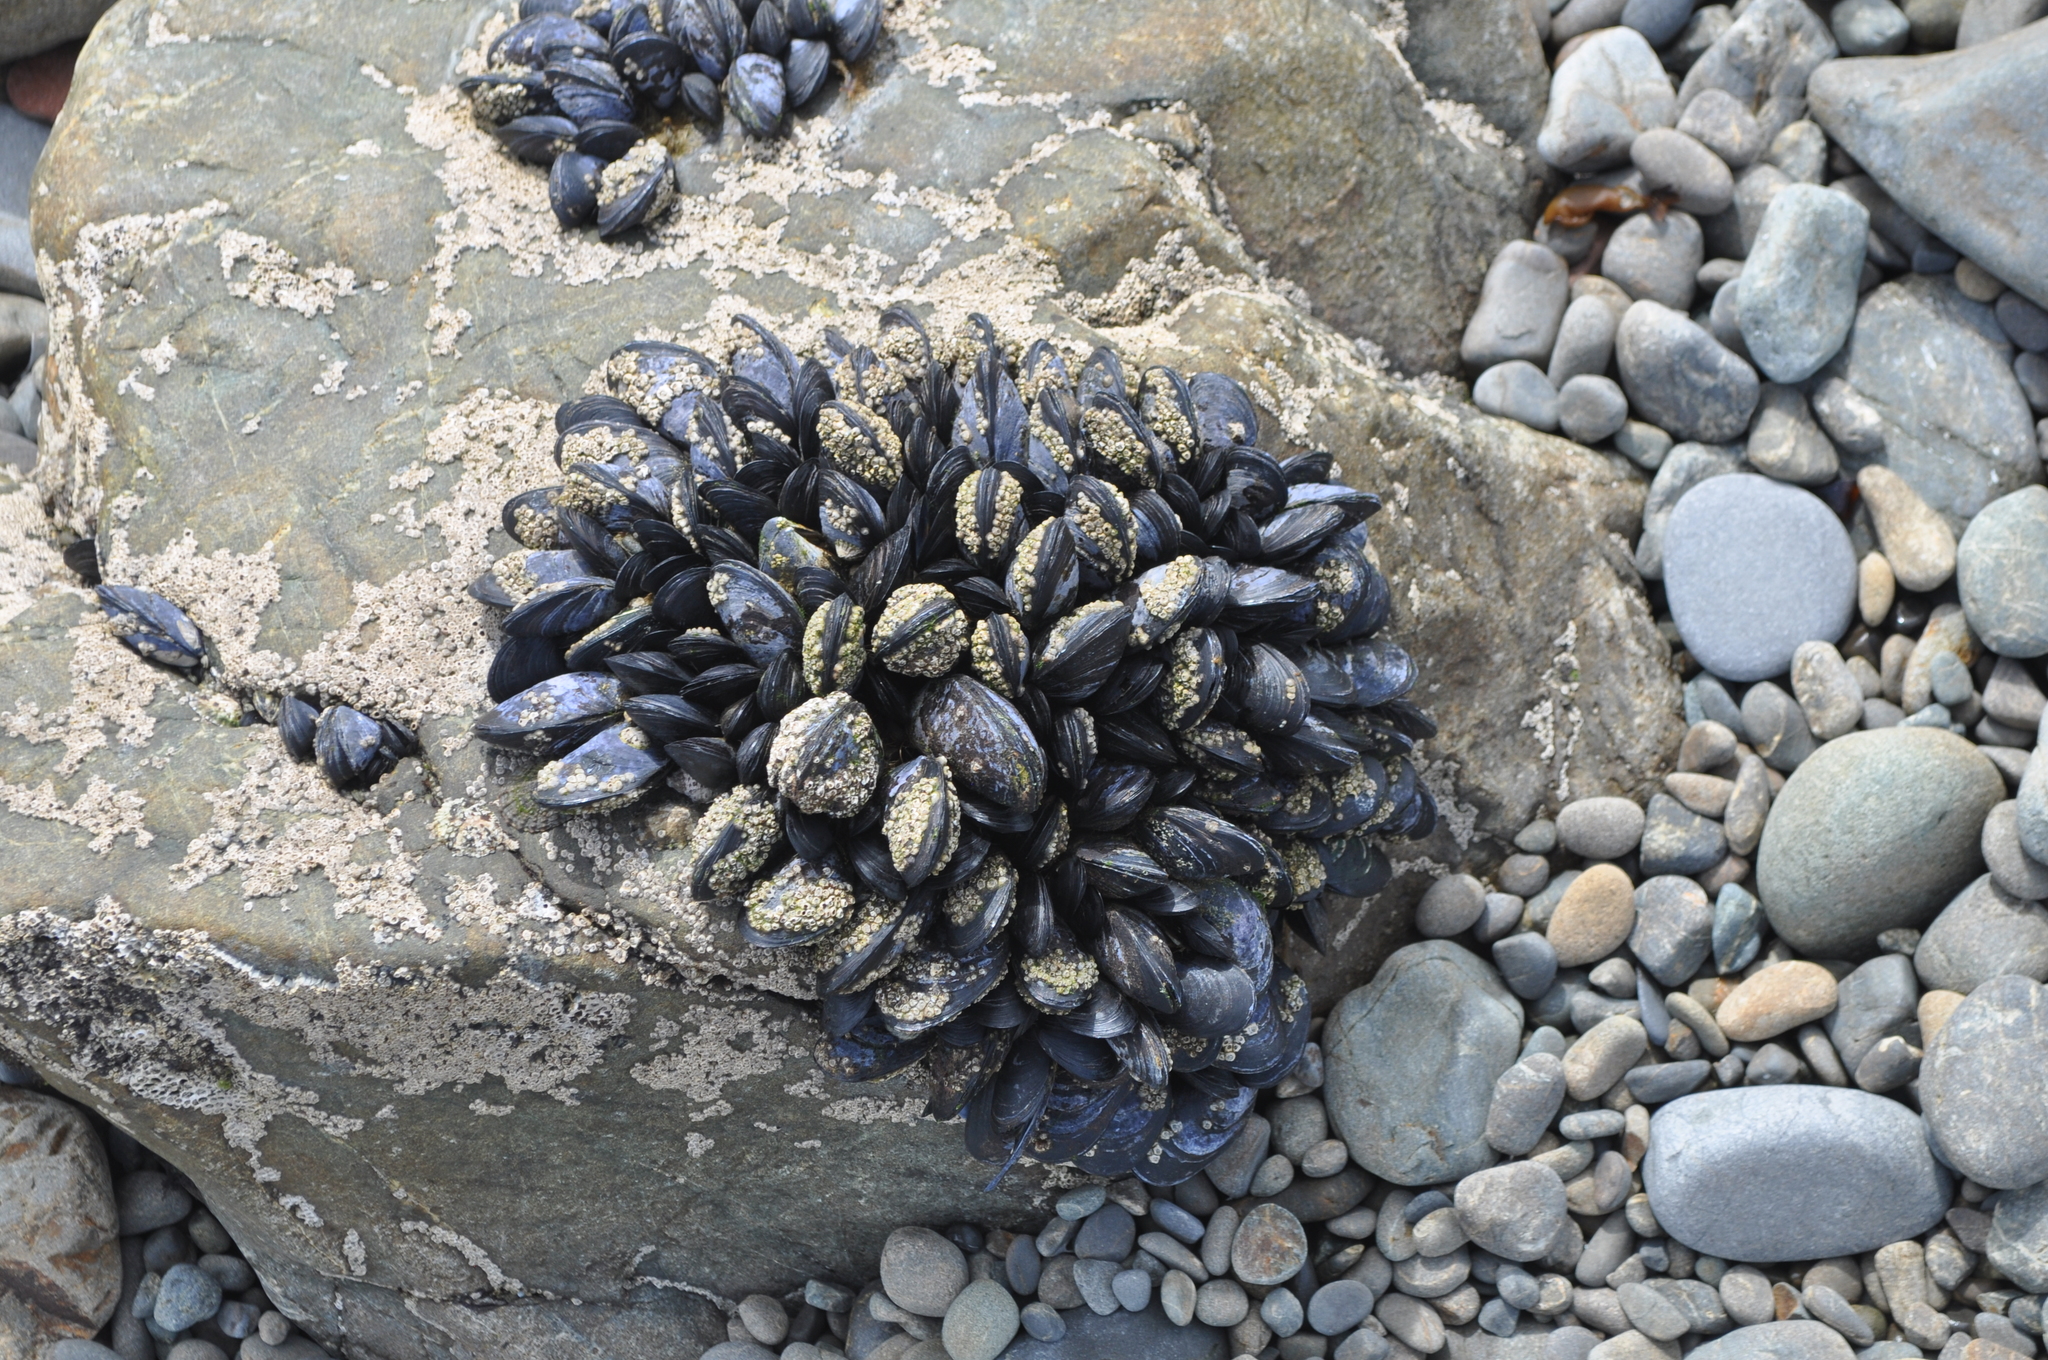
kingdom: Animalia
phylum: Mollusca
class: Bivalvia
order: Mytilida
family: Mytilidae
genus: Mytilus
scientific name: Mytilus planulatus
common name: Australian mussel
